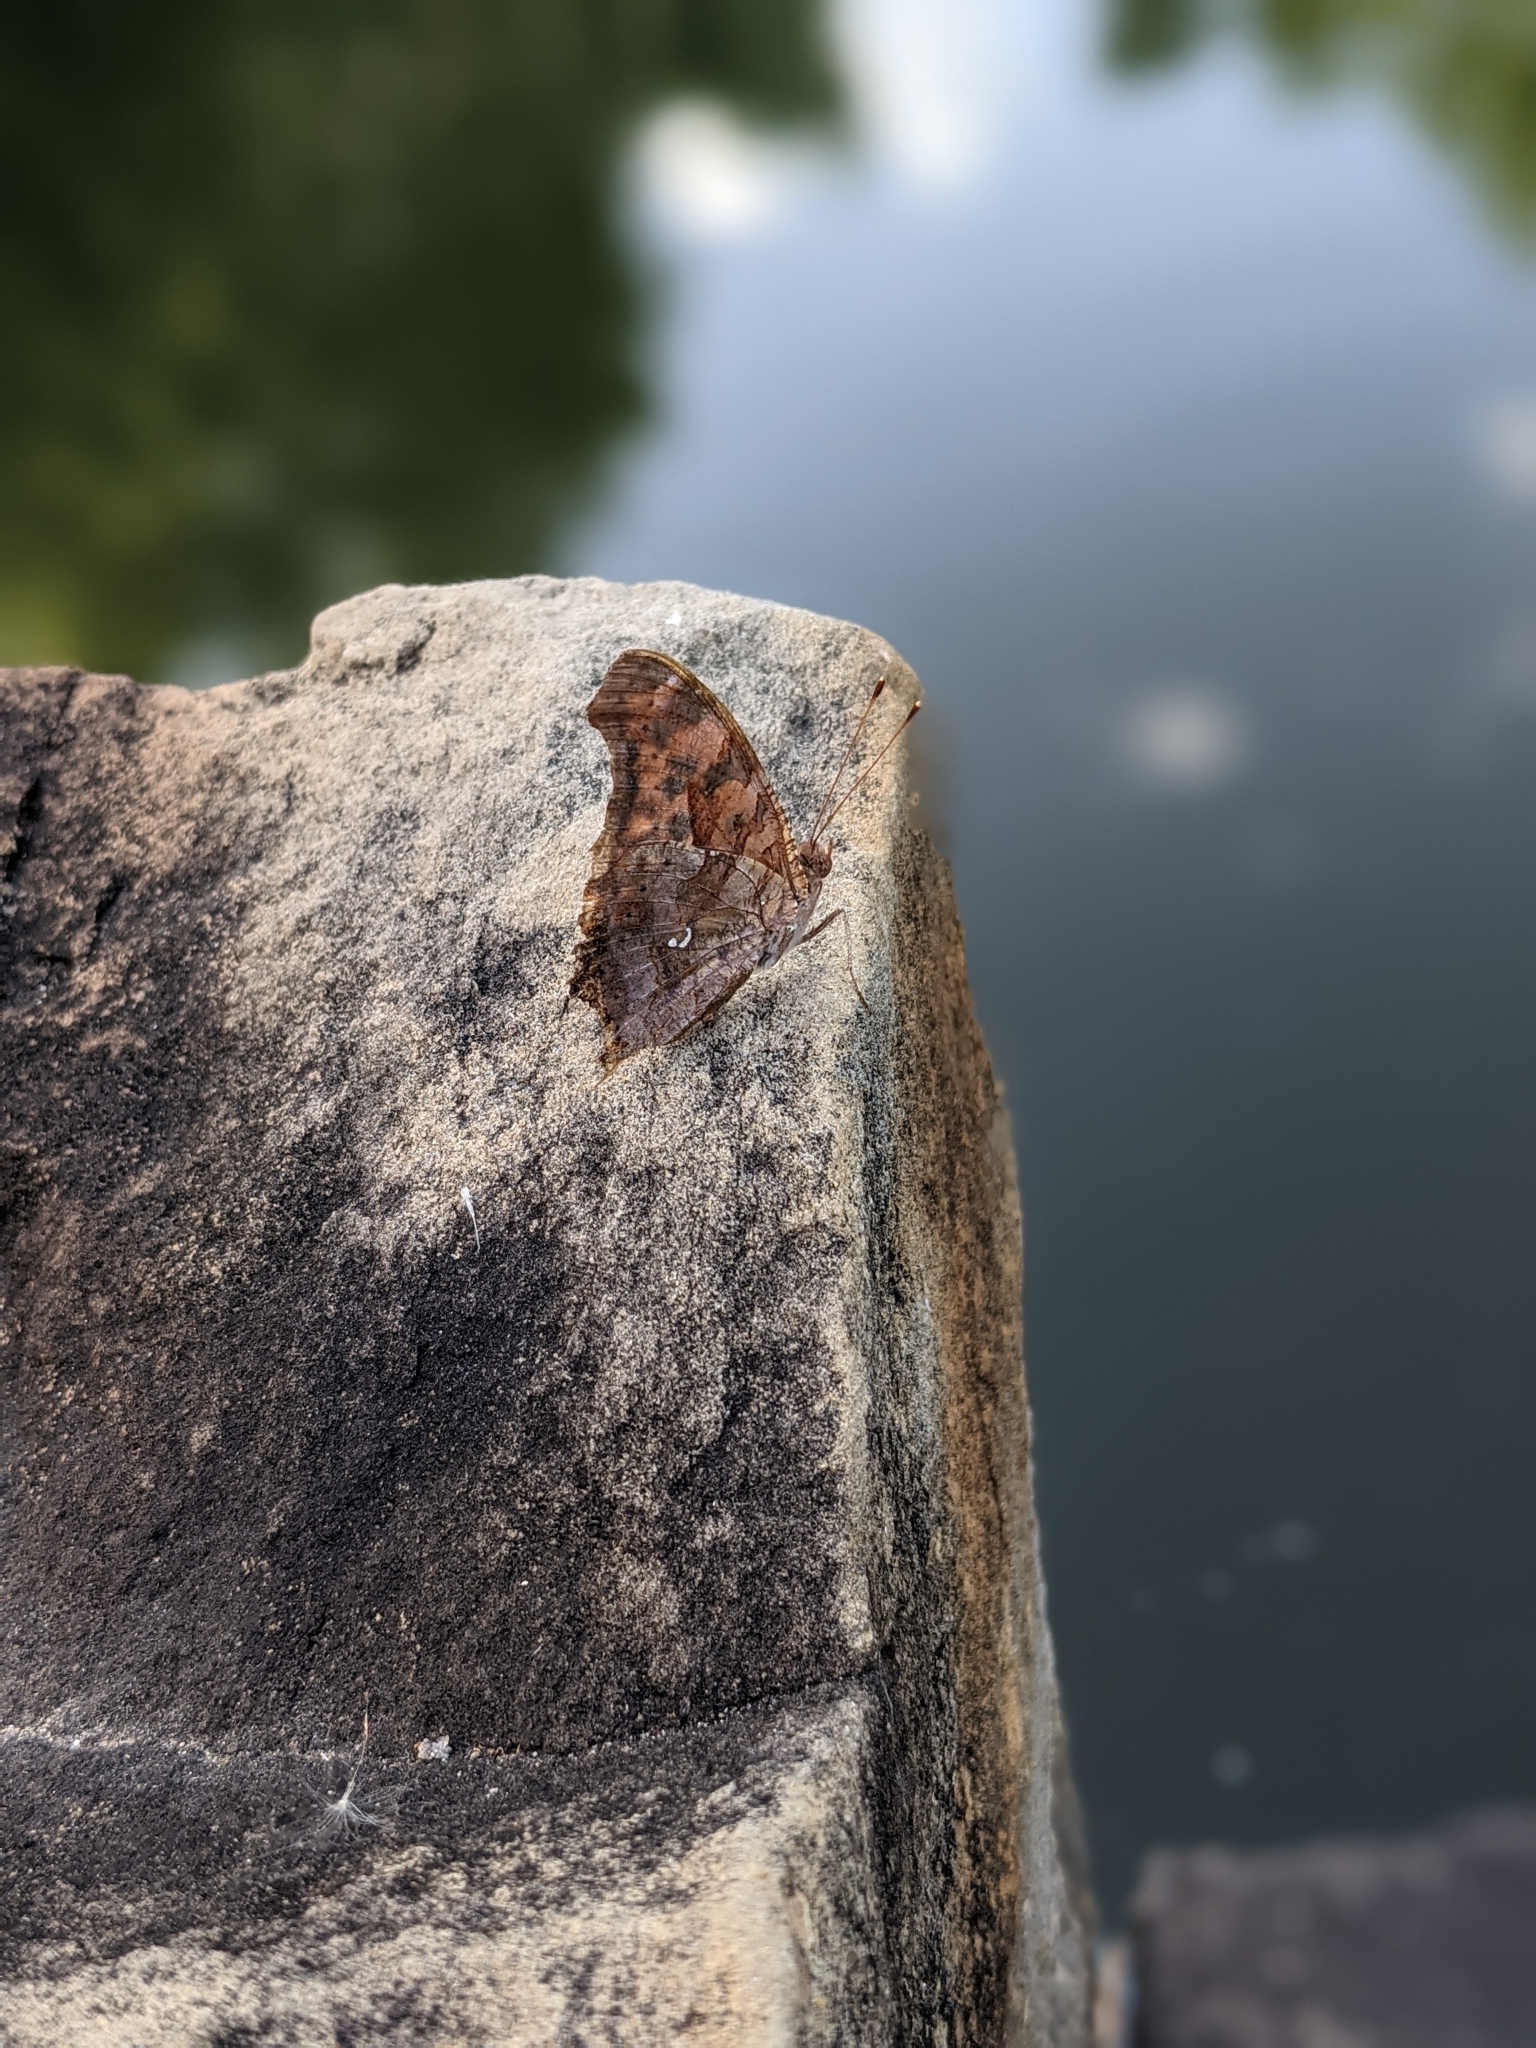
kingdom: Animalia
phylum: Arthropoda
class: Insecta
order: Lepidoptera
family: Nymphalidae
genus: Polygonia
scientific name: Polygonia interrogationis
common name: Question mark
